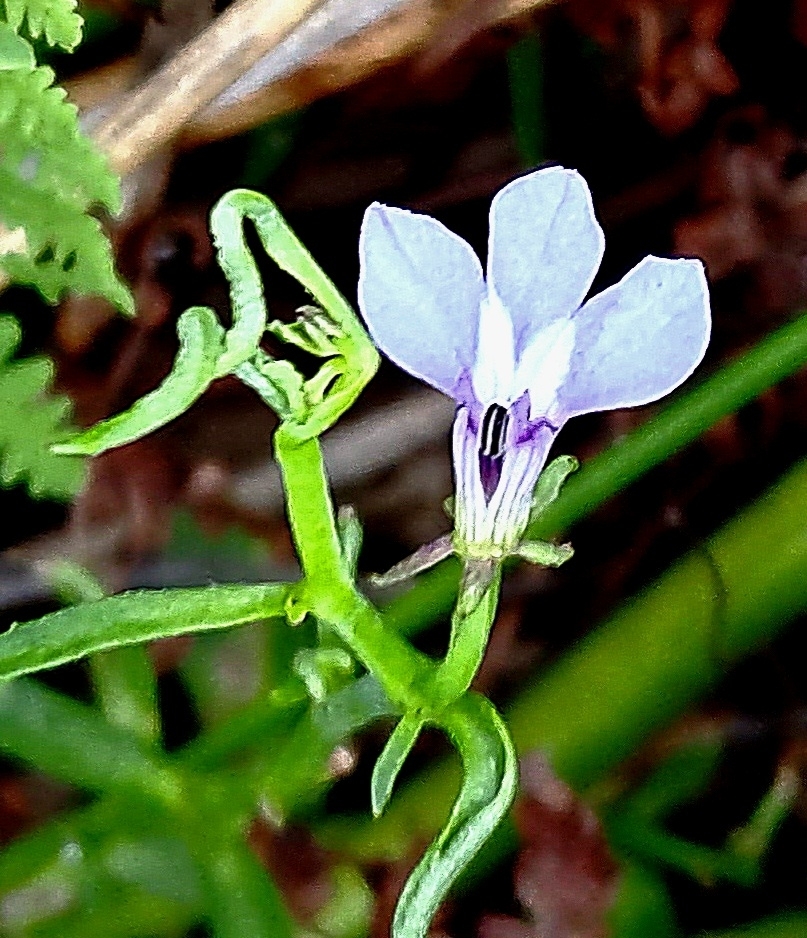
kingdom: Plantae
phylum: Tracheophyta
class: Magnoliopsida
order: Asterales
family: Campanulaceae
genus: Grammatotheca
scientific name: Grammatotheca bergiana
